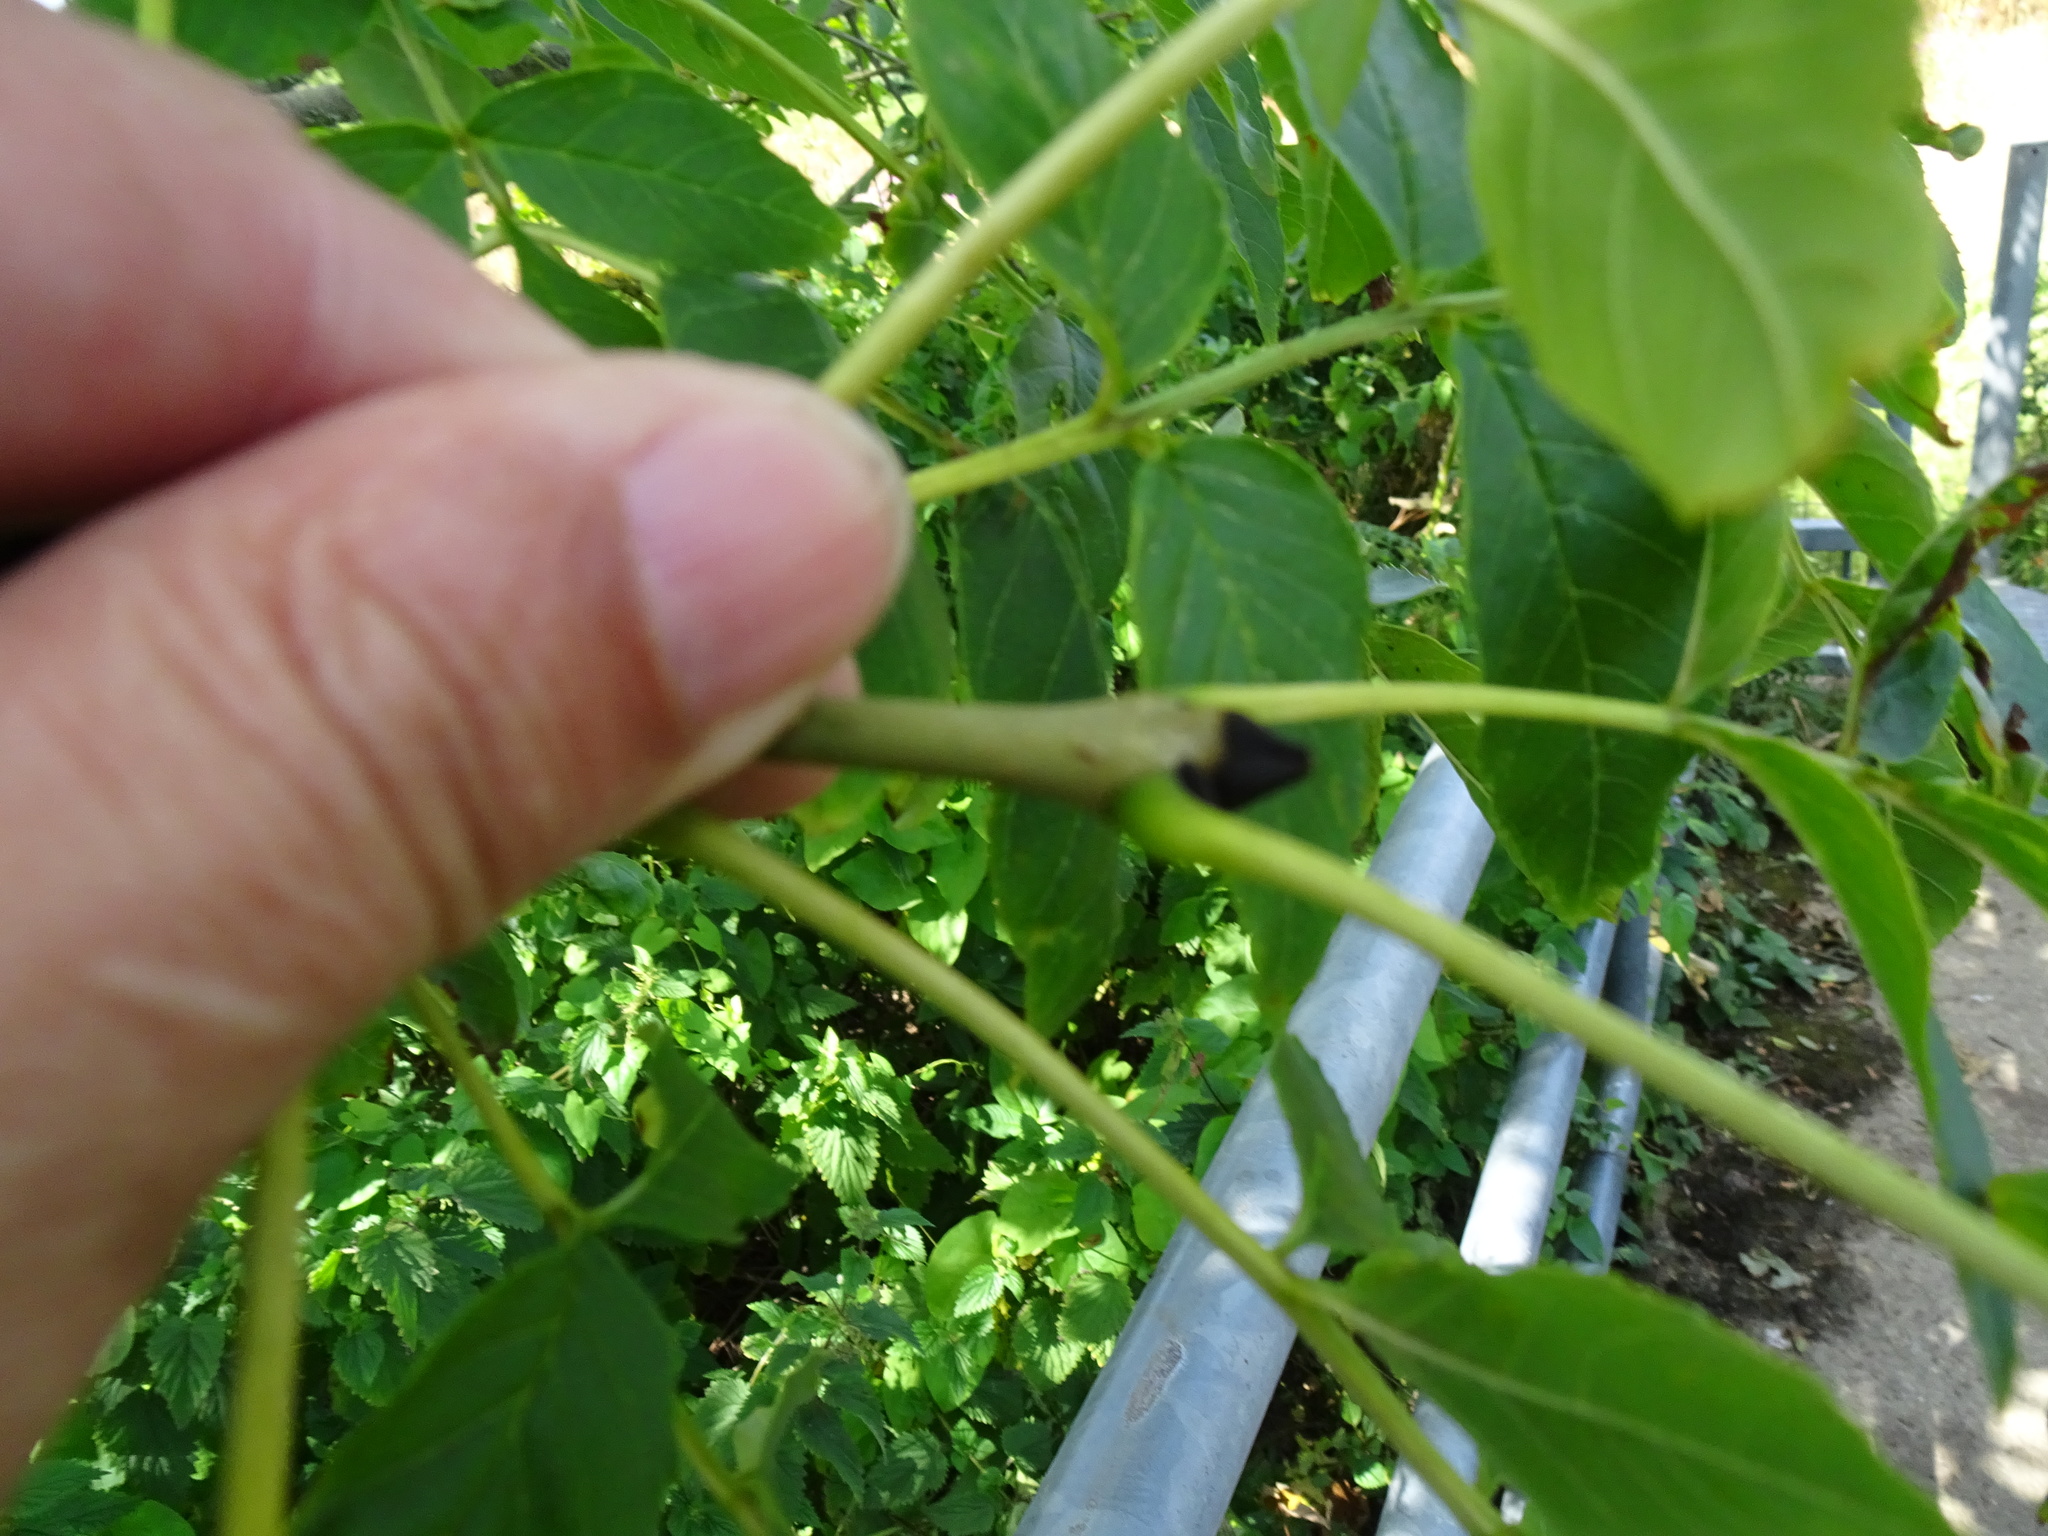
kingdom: Plantae
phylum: Tracheophyta
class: Magnoliopsida
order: Lamiales
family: Oleaceae
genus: Fraxinus
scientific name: Fraxinus excelsior
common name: European ash
